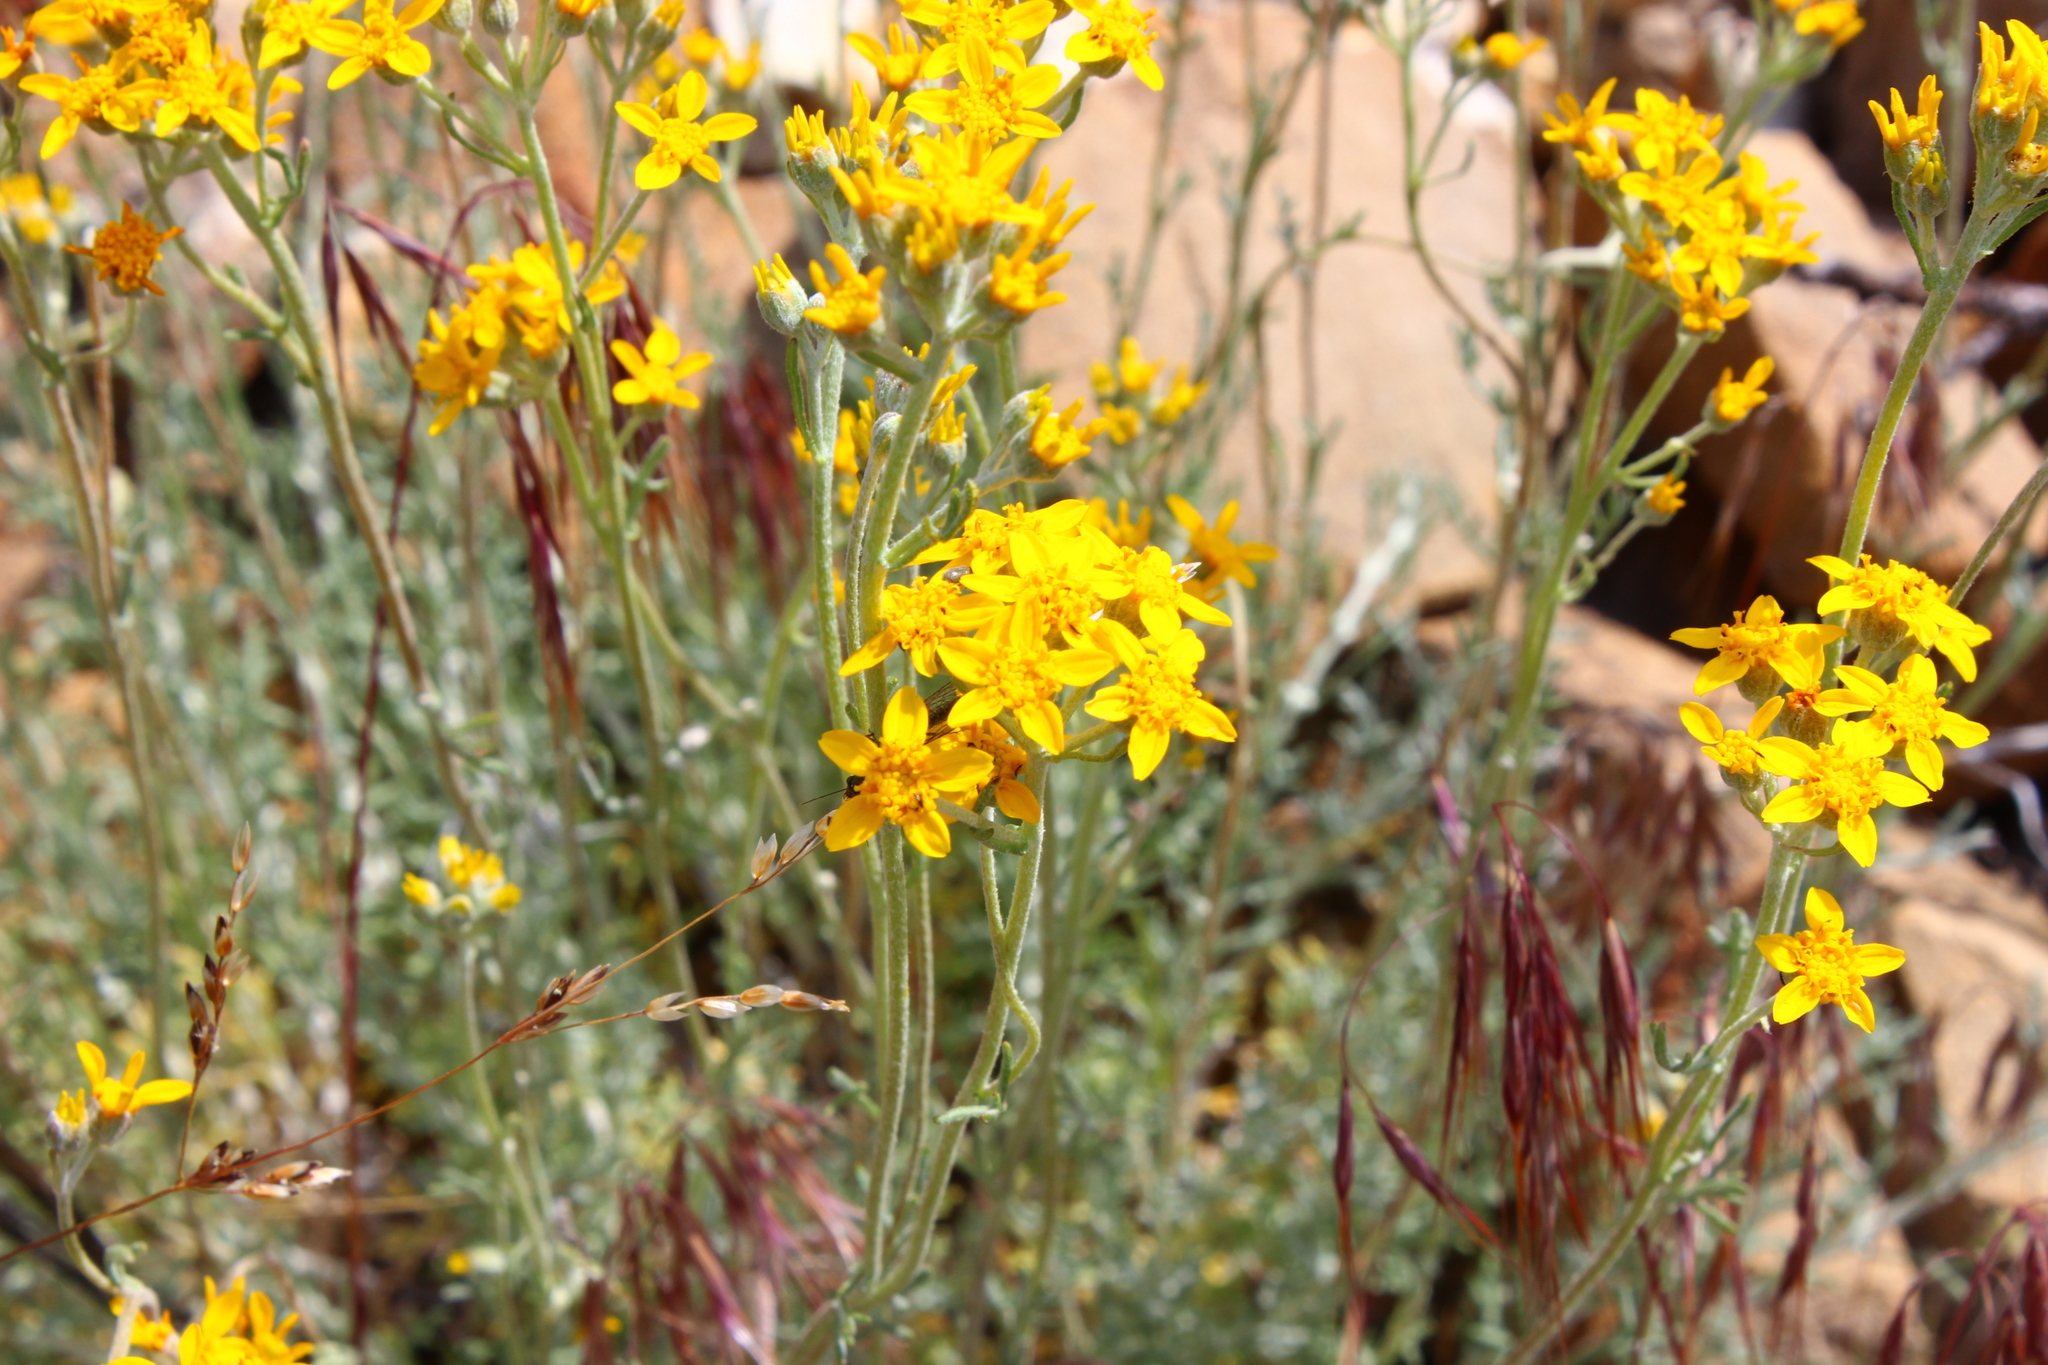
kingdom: Plantae
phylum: Tracheophyta
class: Magnoliopsida
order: Asterales
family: Asteraceae
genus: Eriophyllum
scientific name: Eriophyllum confertiflorum
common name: Golden-yarrow
